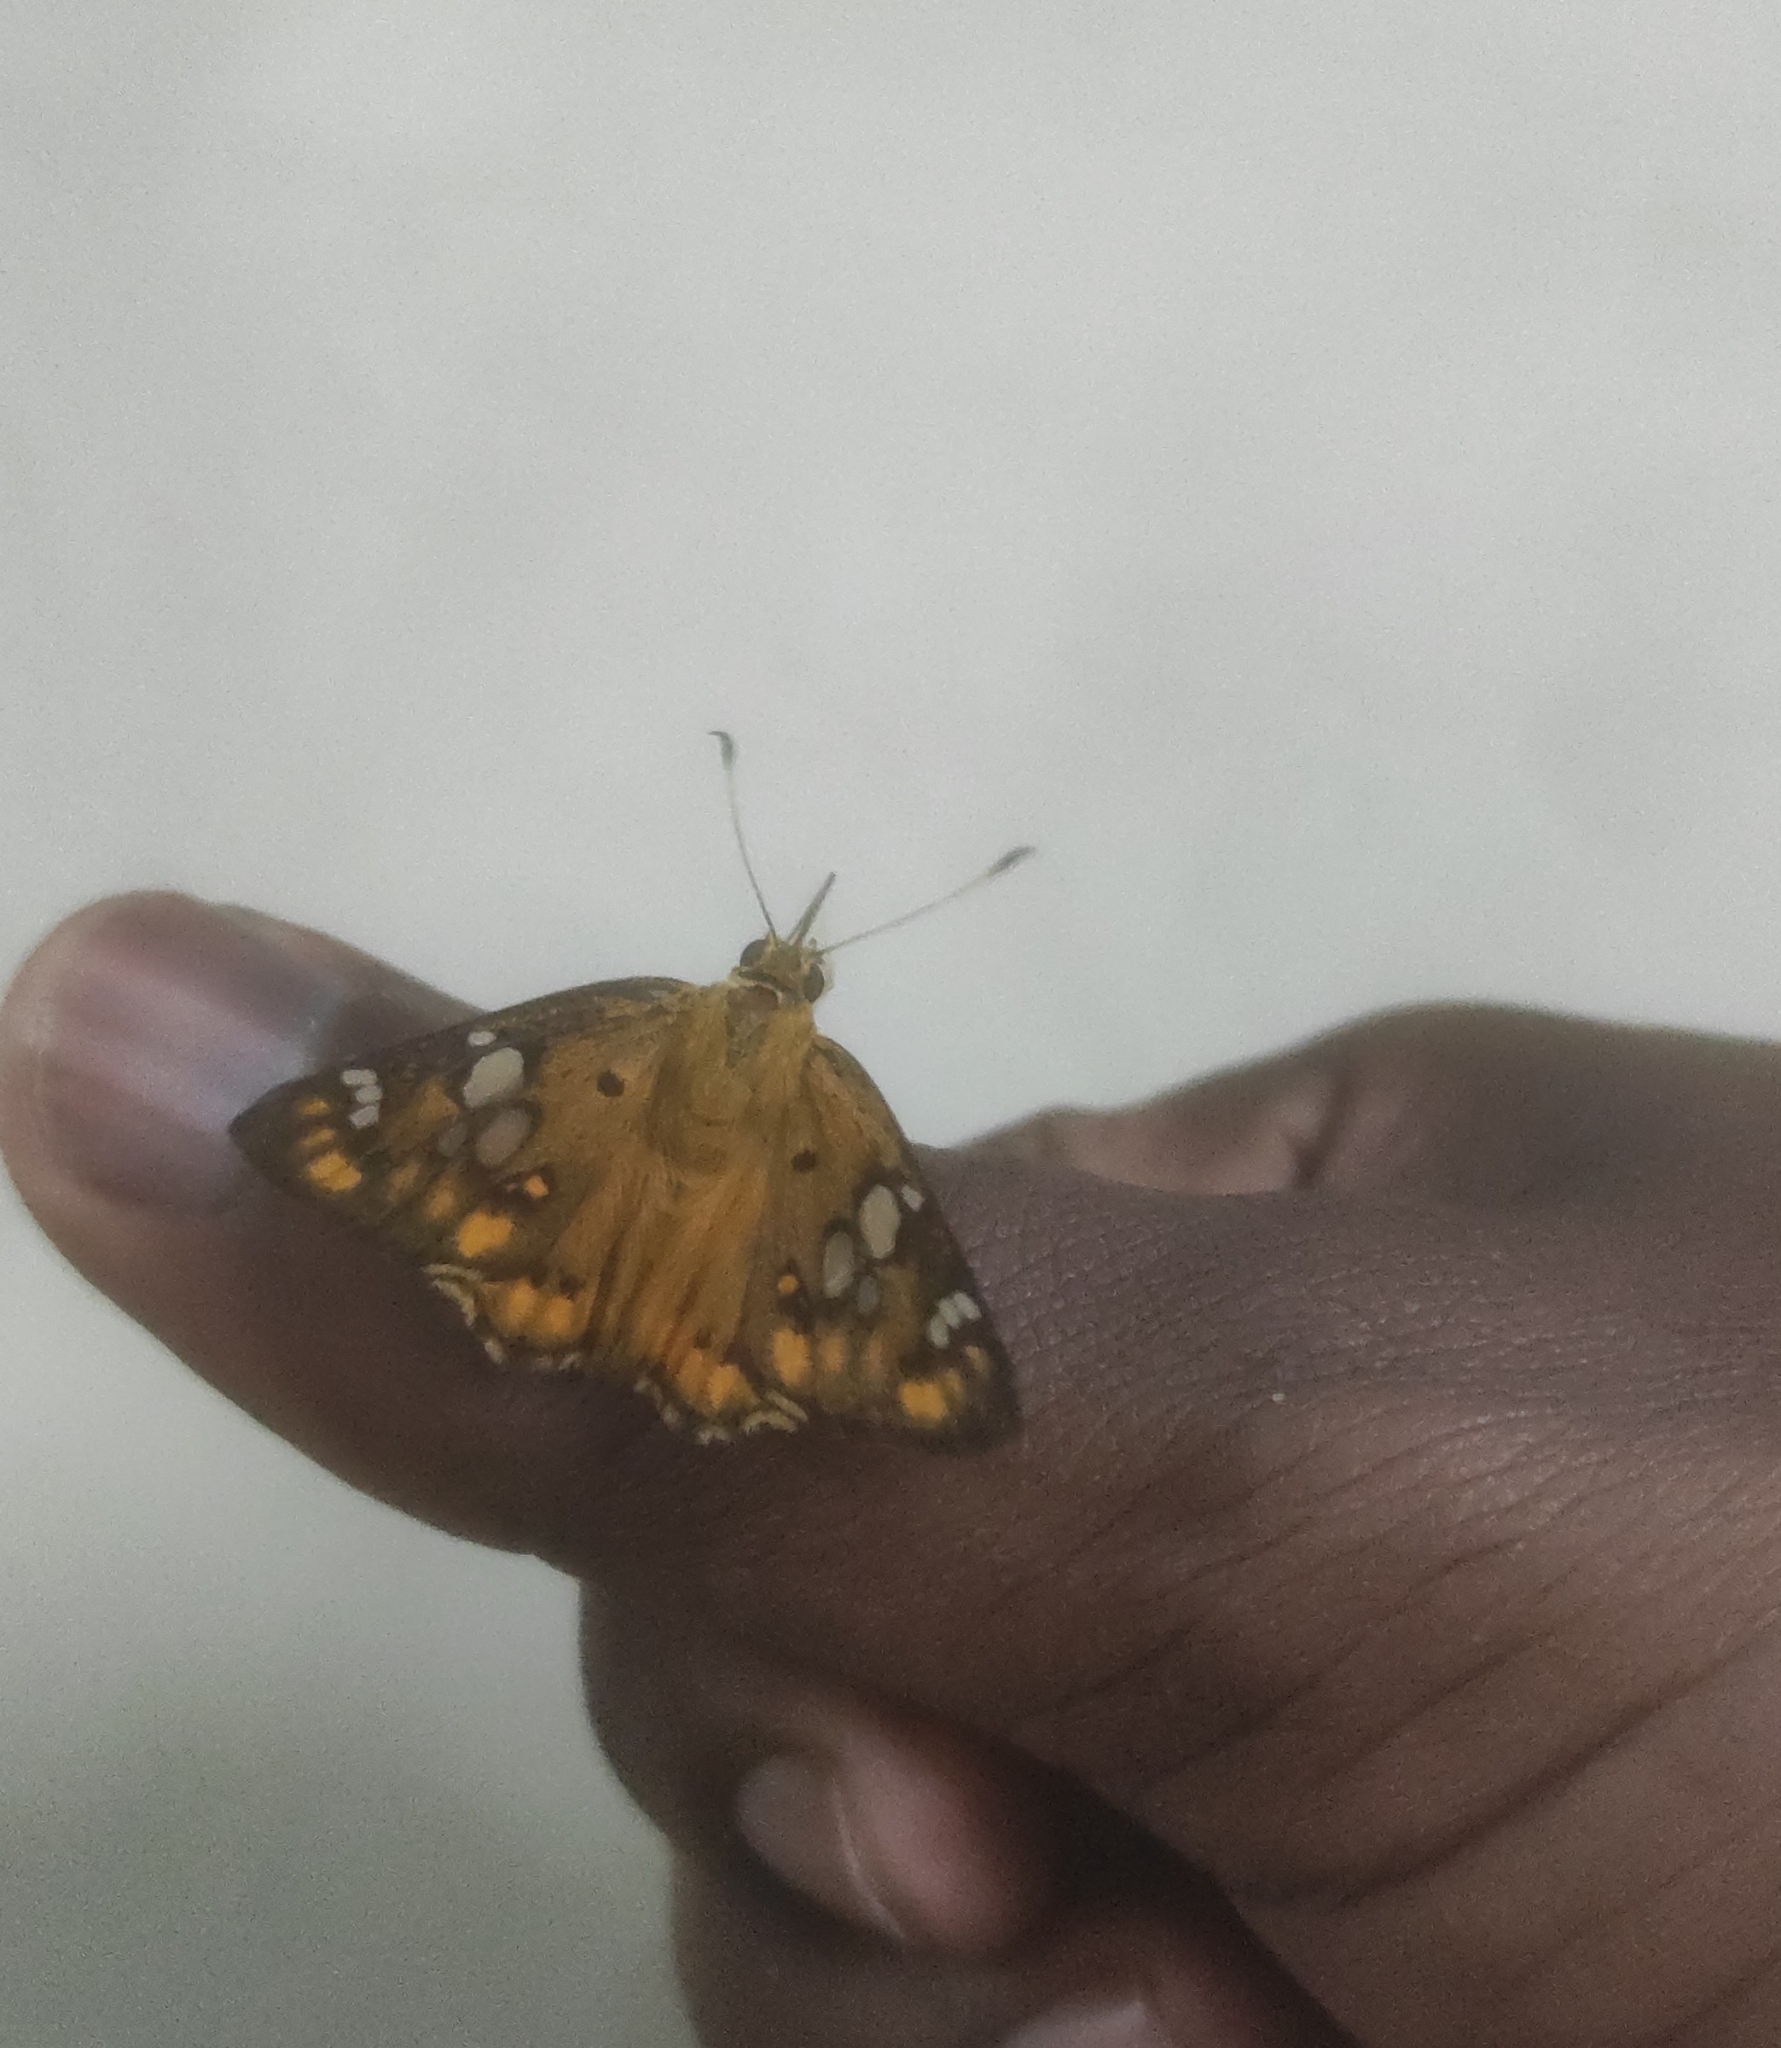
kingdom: Animalia
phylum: Arthropoda
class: Insecta
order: Lepidoptera
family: Hesperiidae
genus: Coladenia
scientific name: Coladenia
